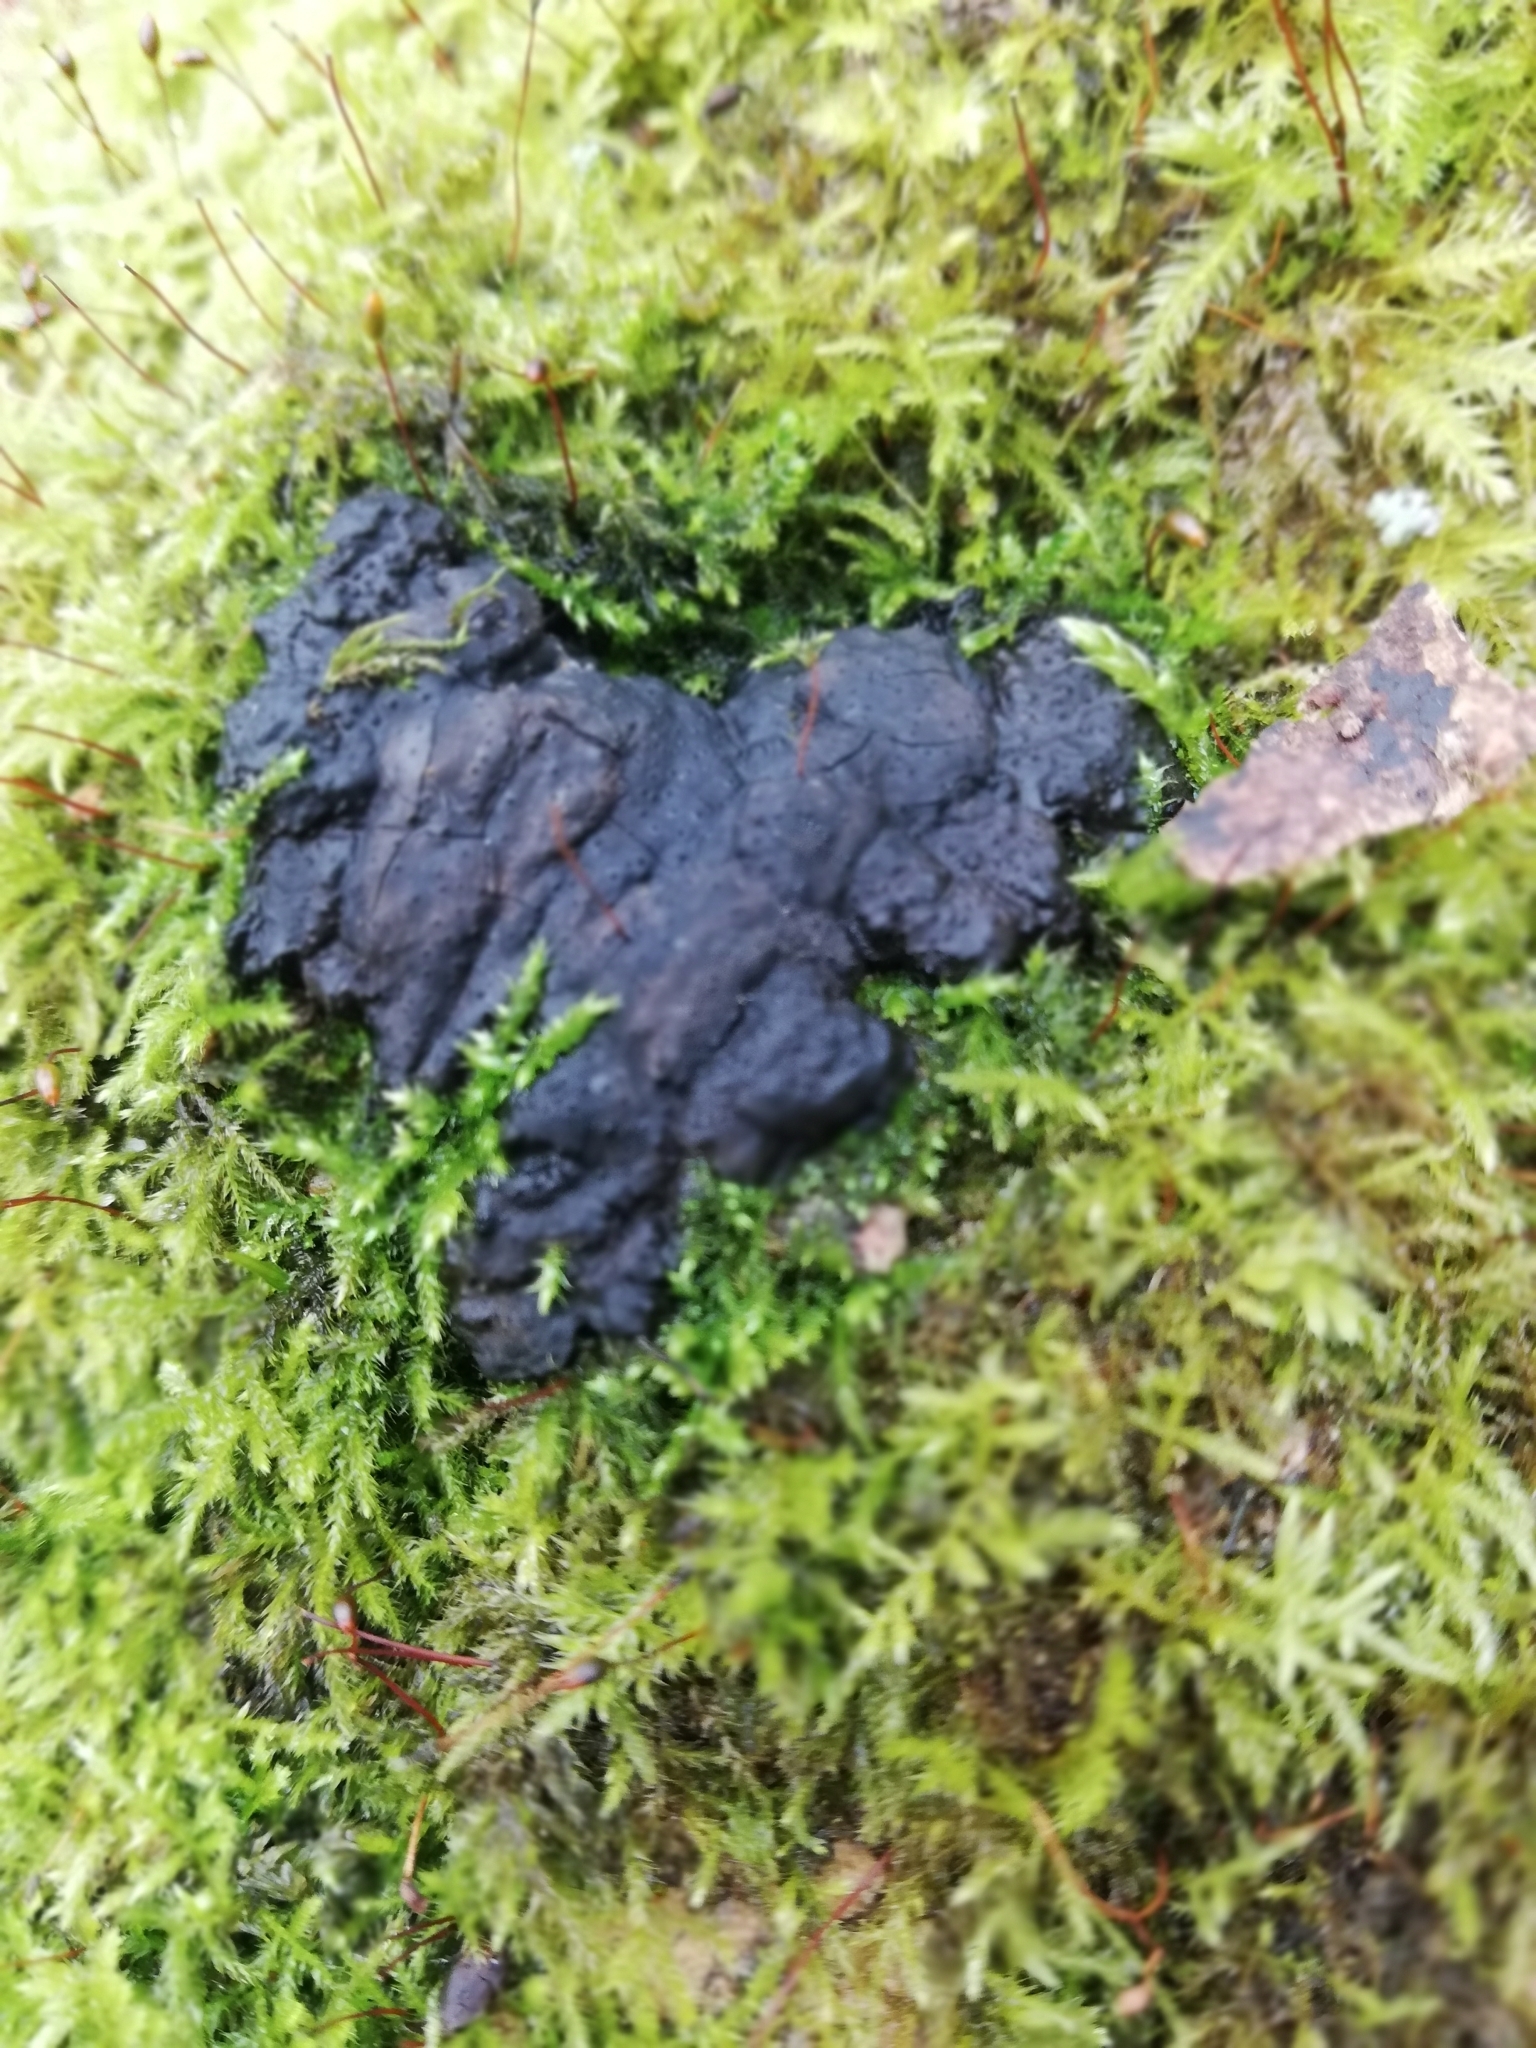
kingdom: Fungi
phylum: Ascomycota
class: Sordariomycetes
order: Xylariales
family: Xylariaceae
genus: Kretzschmaria
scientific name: Kretzschmaria deusta
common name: Brittle cinder
